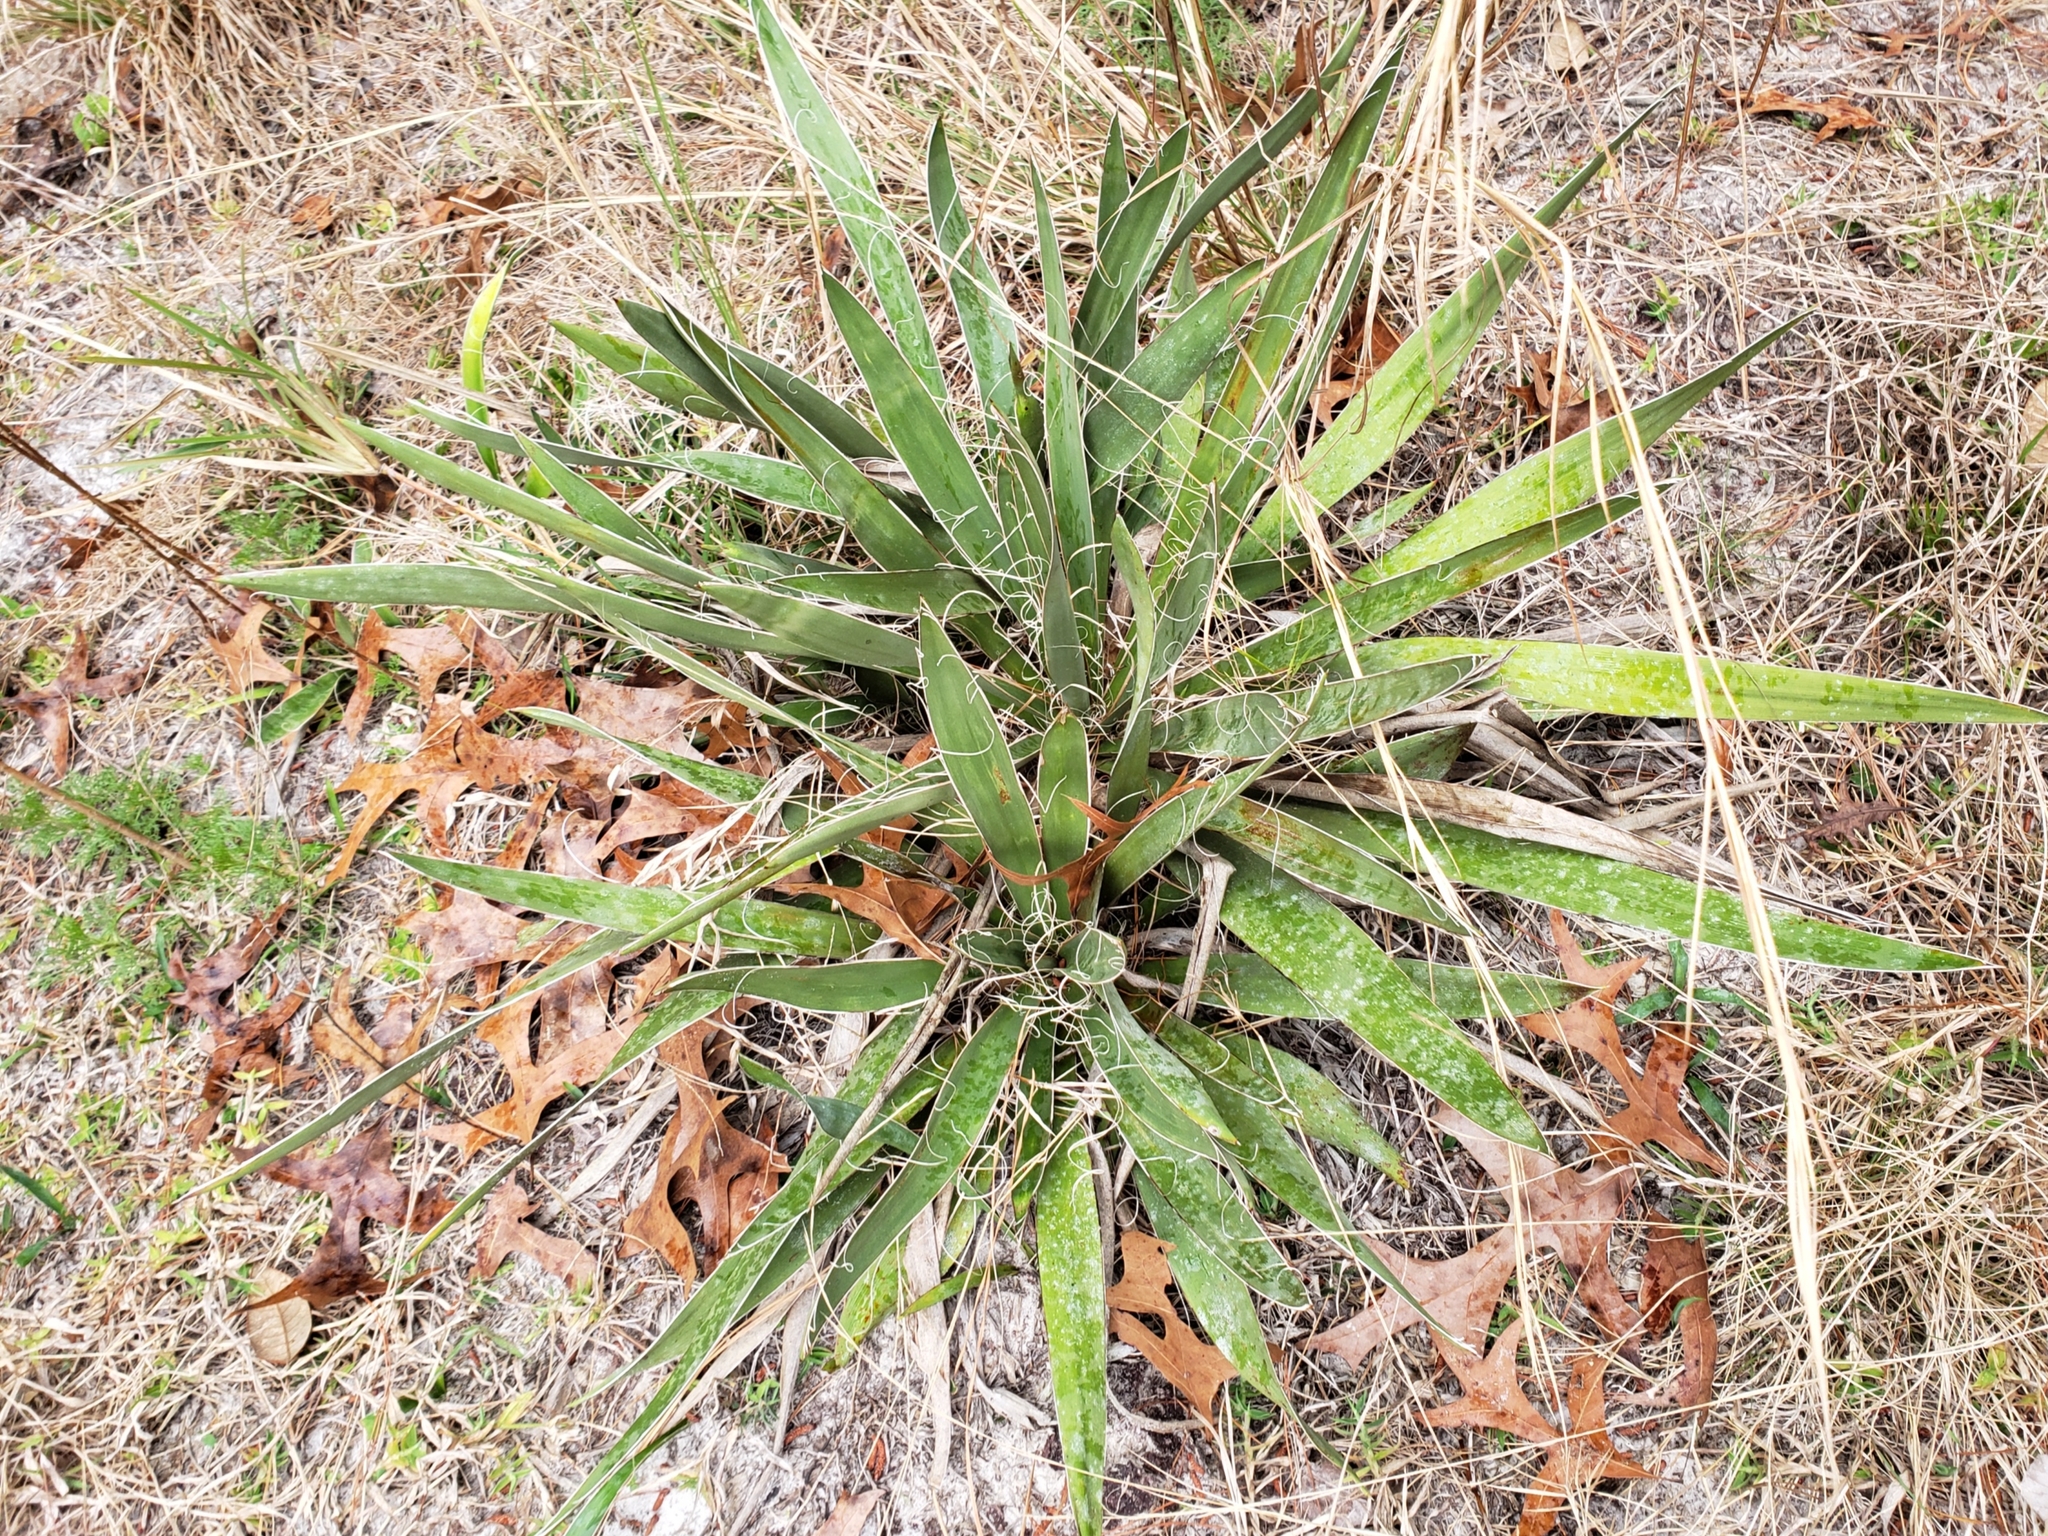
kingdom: Plantae
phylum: Tracheophyta
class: Liliopsida
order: Asparagales
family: Asparagaceae
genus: Yucca
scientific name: Yucca filamentosa
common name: Adam's-needle
